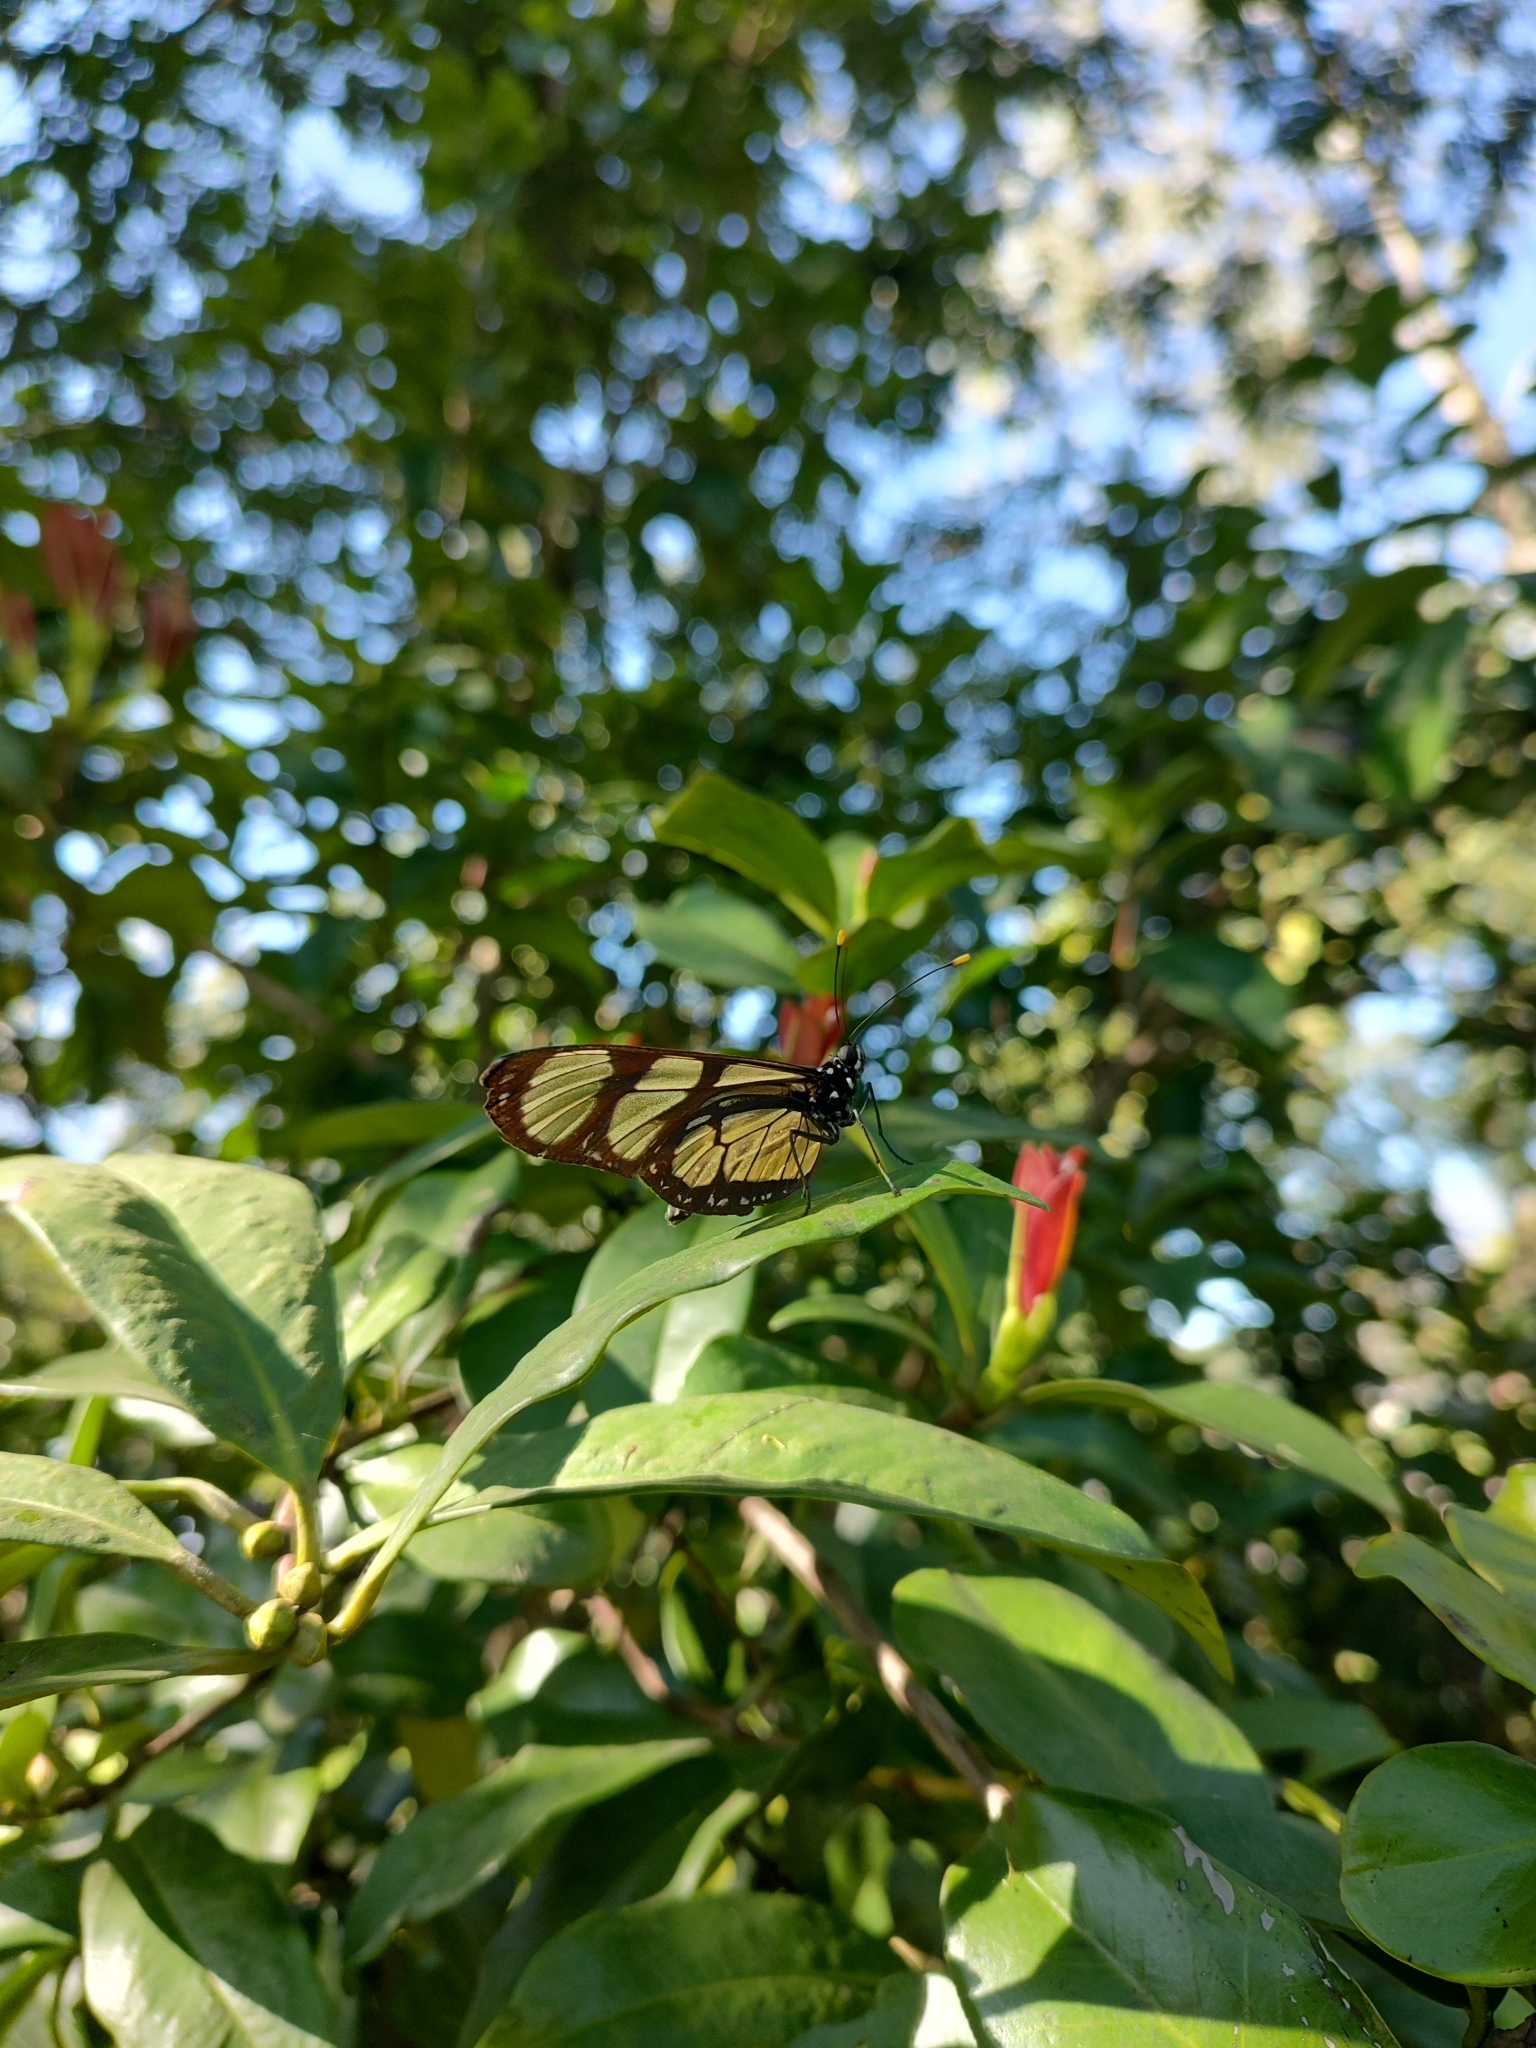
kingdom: Animalia
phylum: Arthropoda
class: Insecta
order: Lepidoptera
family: Nymphalidae
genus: Methona
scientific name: Methona themisto
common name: Themisto amberwing
